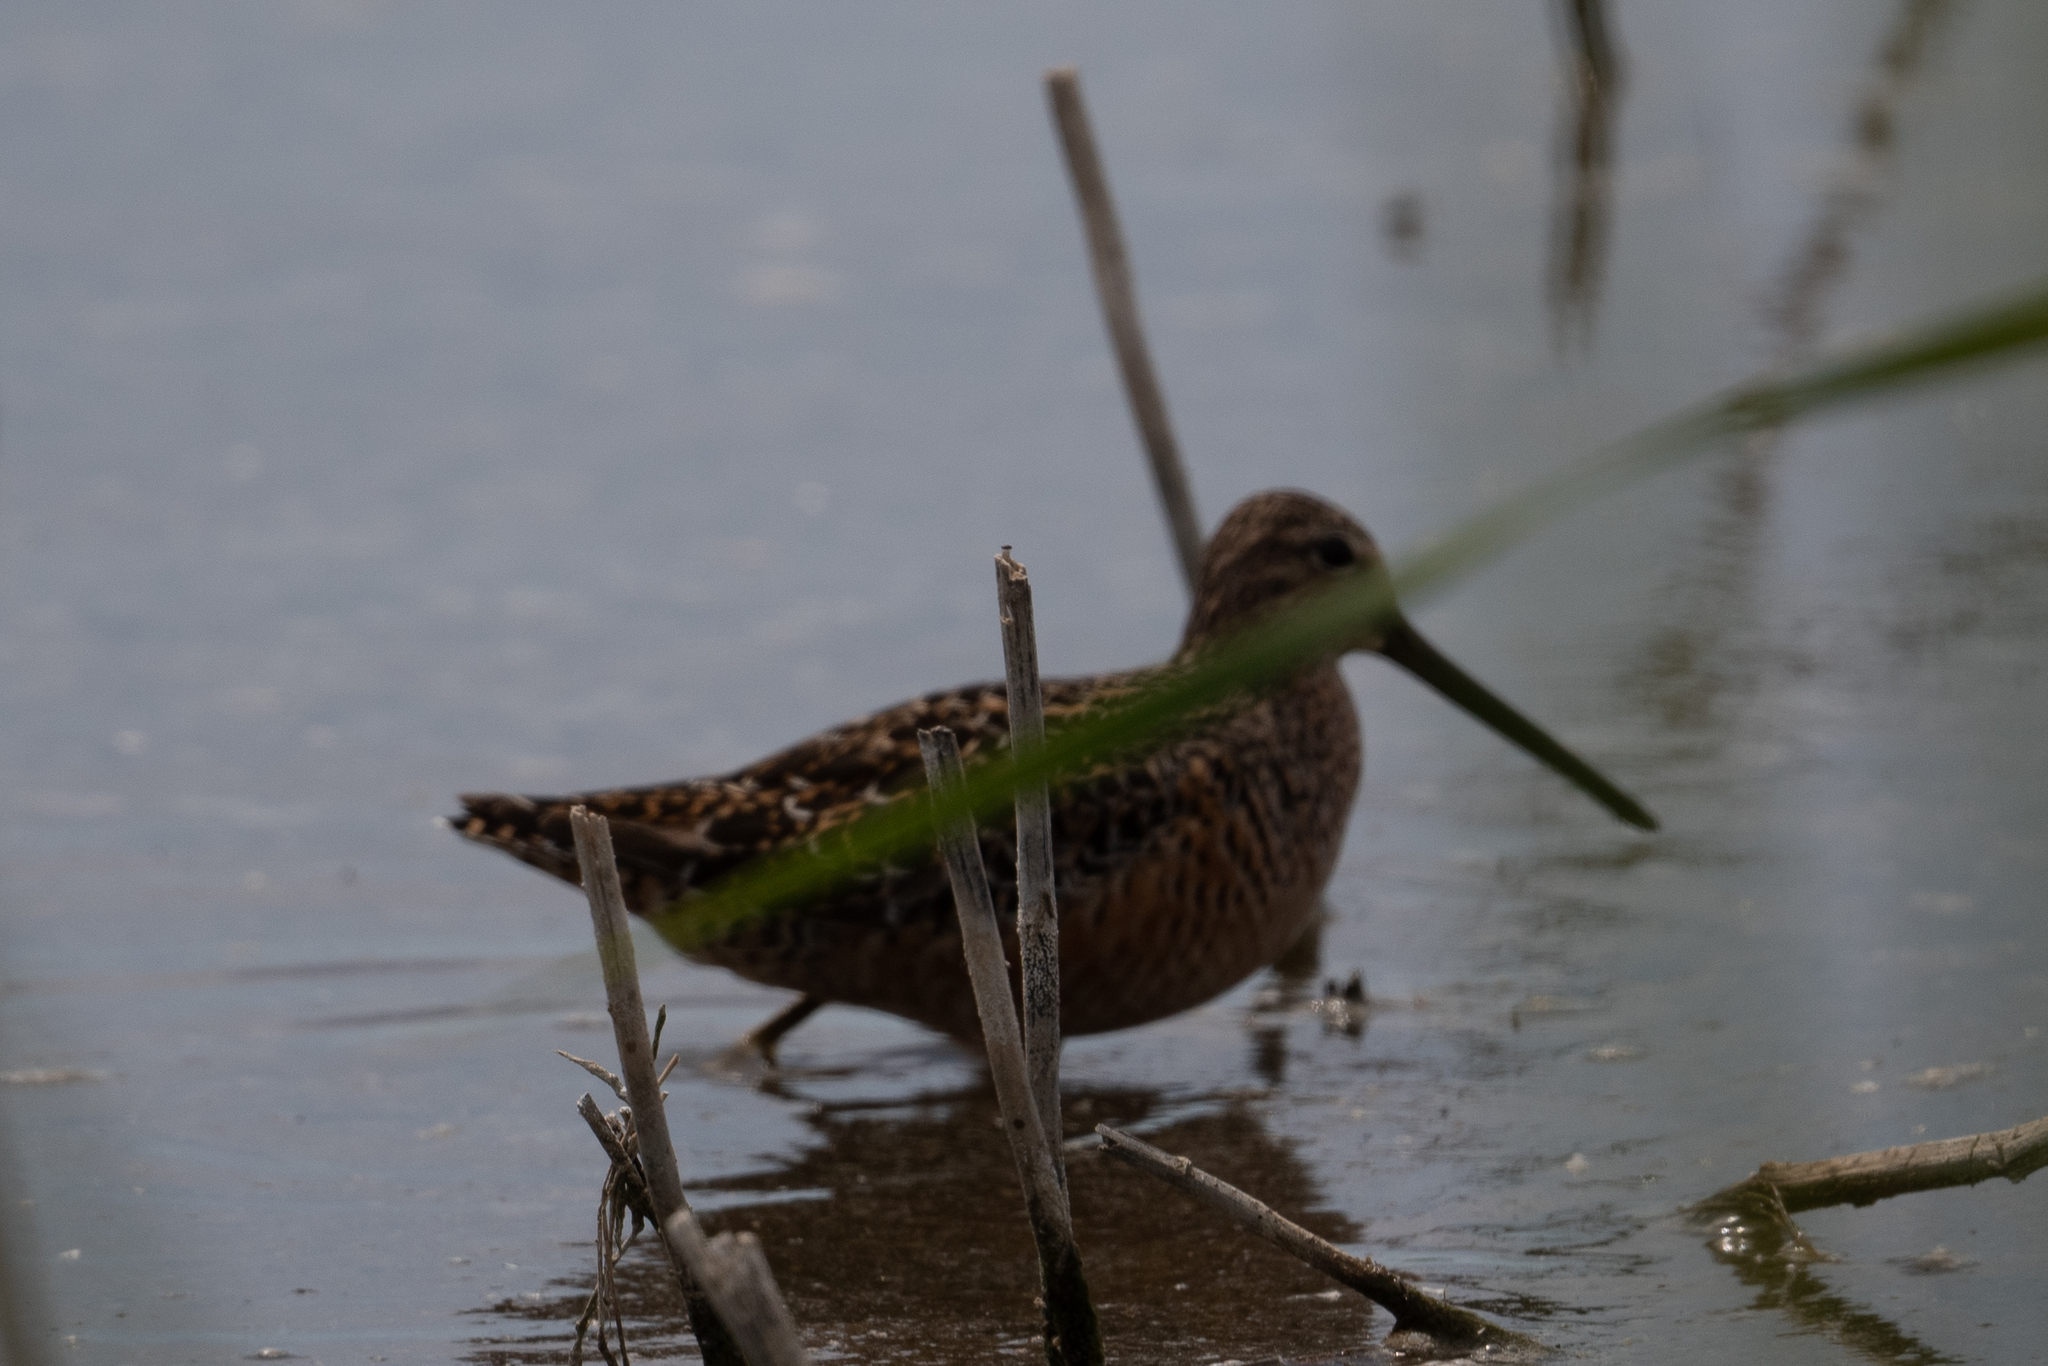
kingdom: Animalia
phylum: Chordata
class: Aves
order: Charadriiformes
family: Scolopacidae
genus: Limnodromus
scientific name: Limnodromus scolopaceus
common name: Long-billed dowitcher
